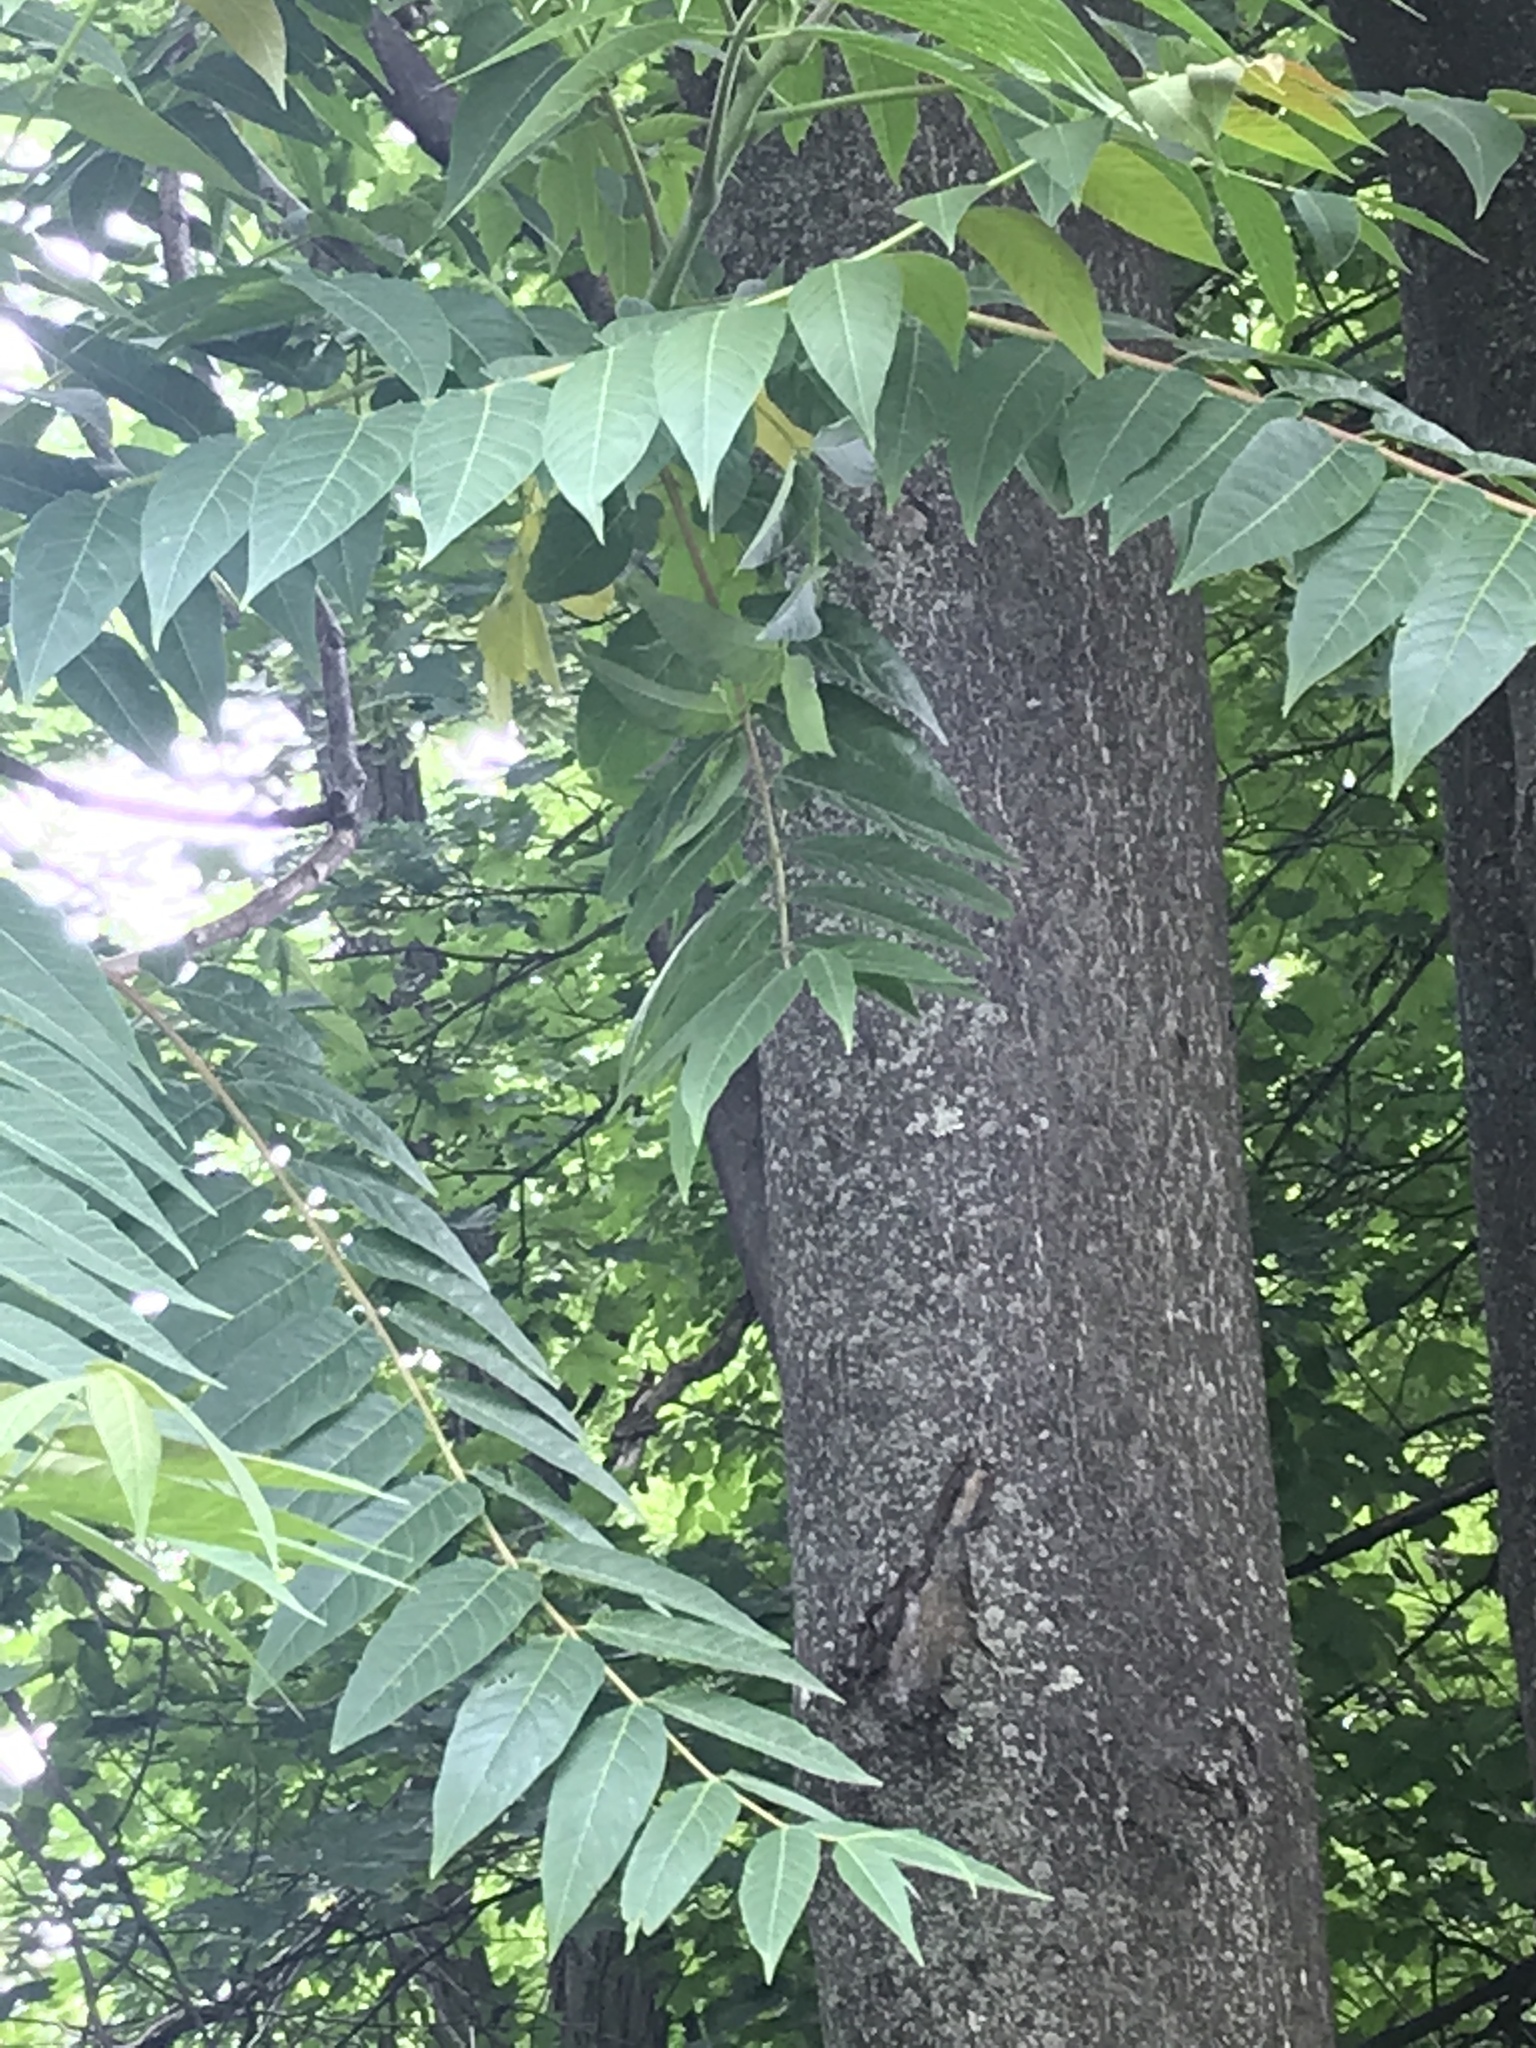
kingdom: Plantae
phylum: Tracheophyta
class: Magnoliopsida
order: Sapindales
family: Simaroubaceae
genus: Ailanthus
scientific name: Ailanthus altissima
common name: Tree-of-heaven
